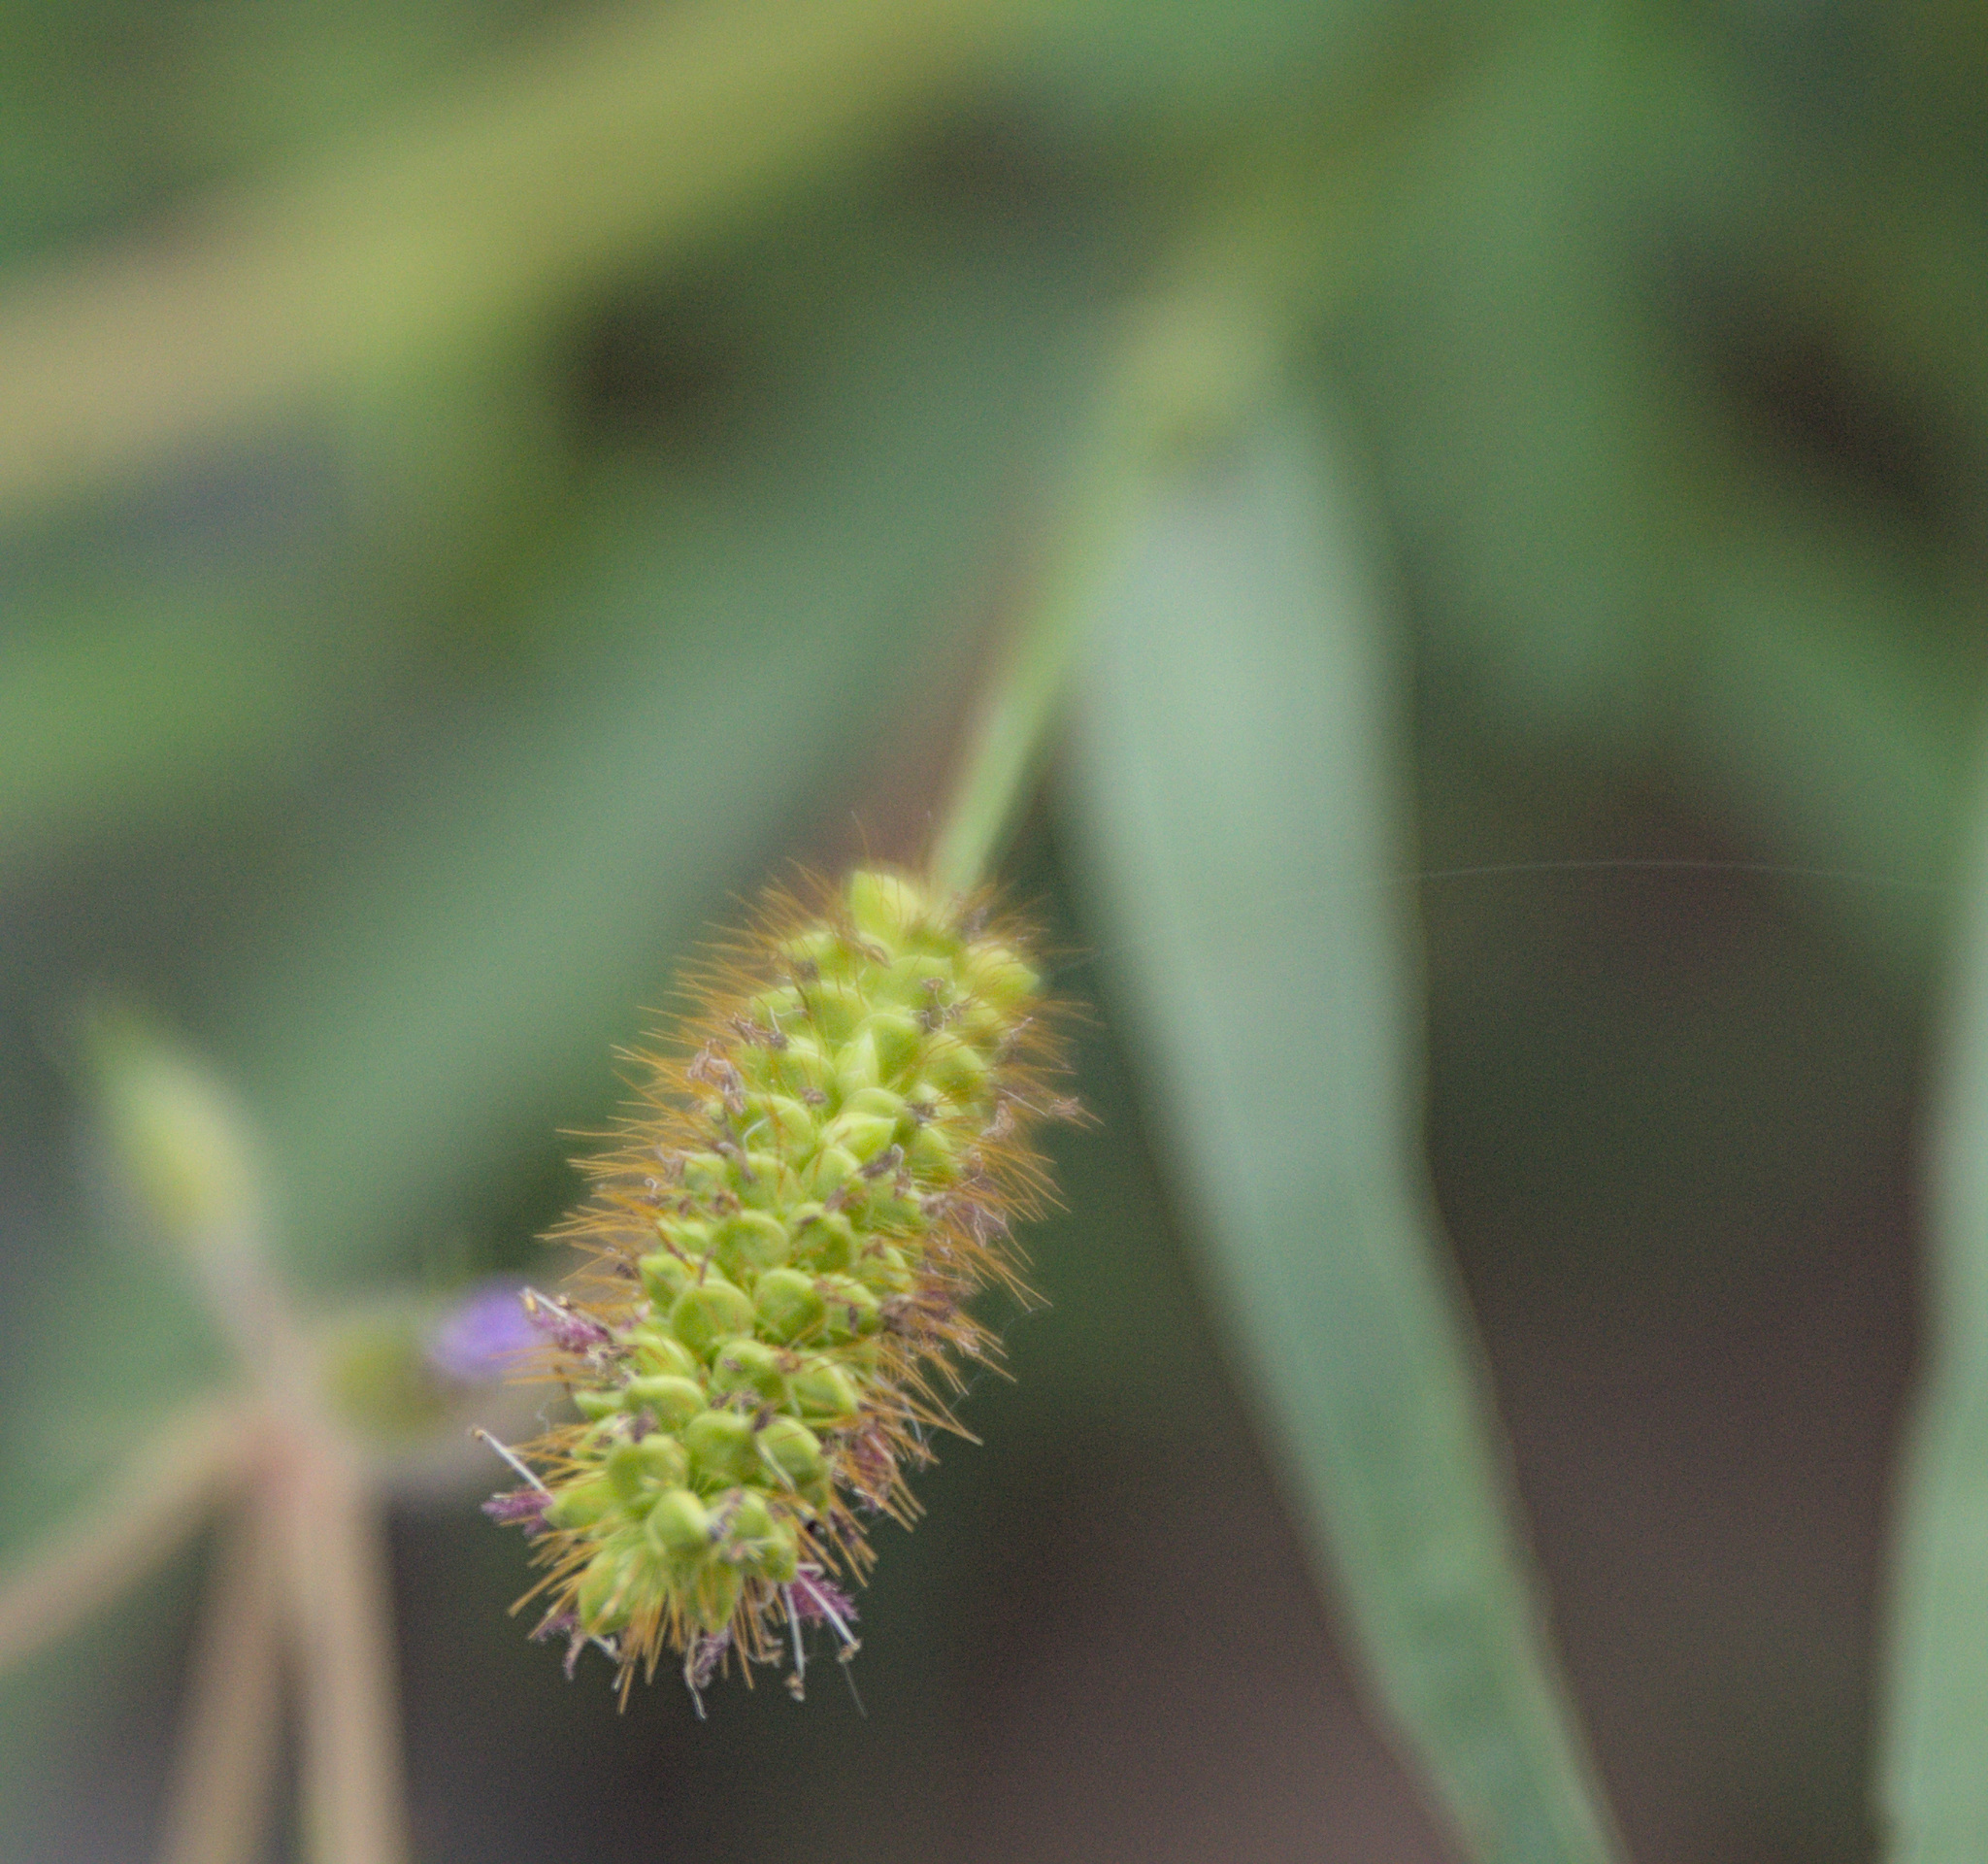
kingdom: Plantae
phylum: Tracheophyta
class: Liliopsida
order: Poales
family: Poaceae
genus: Setaria
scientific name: Setaria pumila
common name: Yellow bristle-grass
